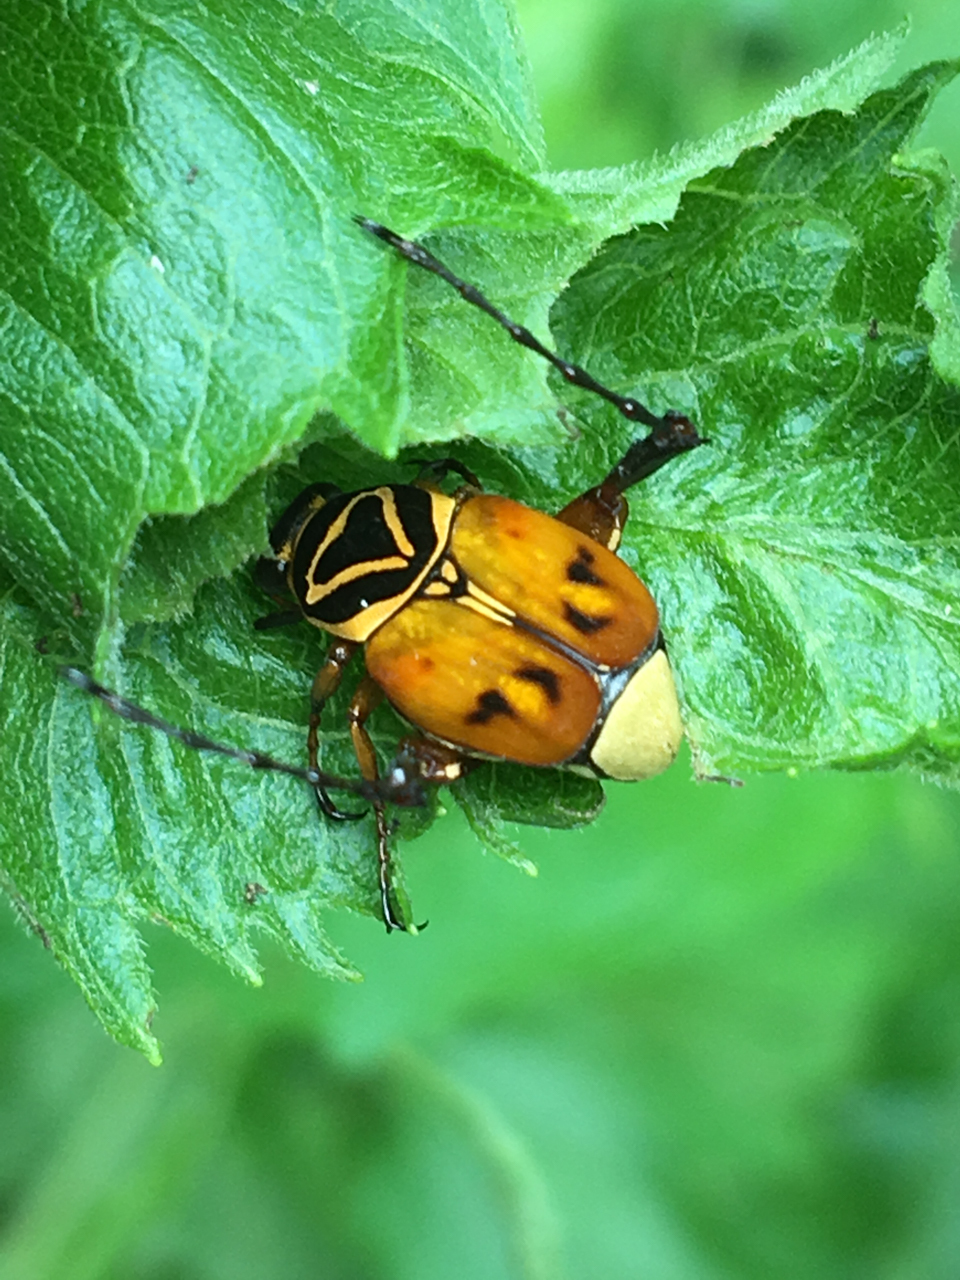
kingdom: Animalia
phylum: Arthropoda
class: Insecta
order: Coleoptera
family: Scarabaeidae
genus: Trigonopeltastes
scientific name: Trigonopeltastes delta
